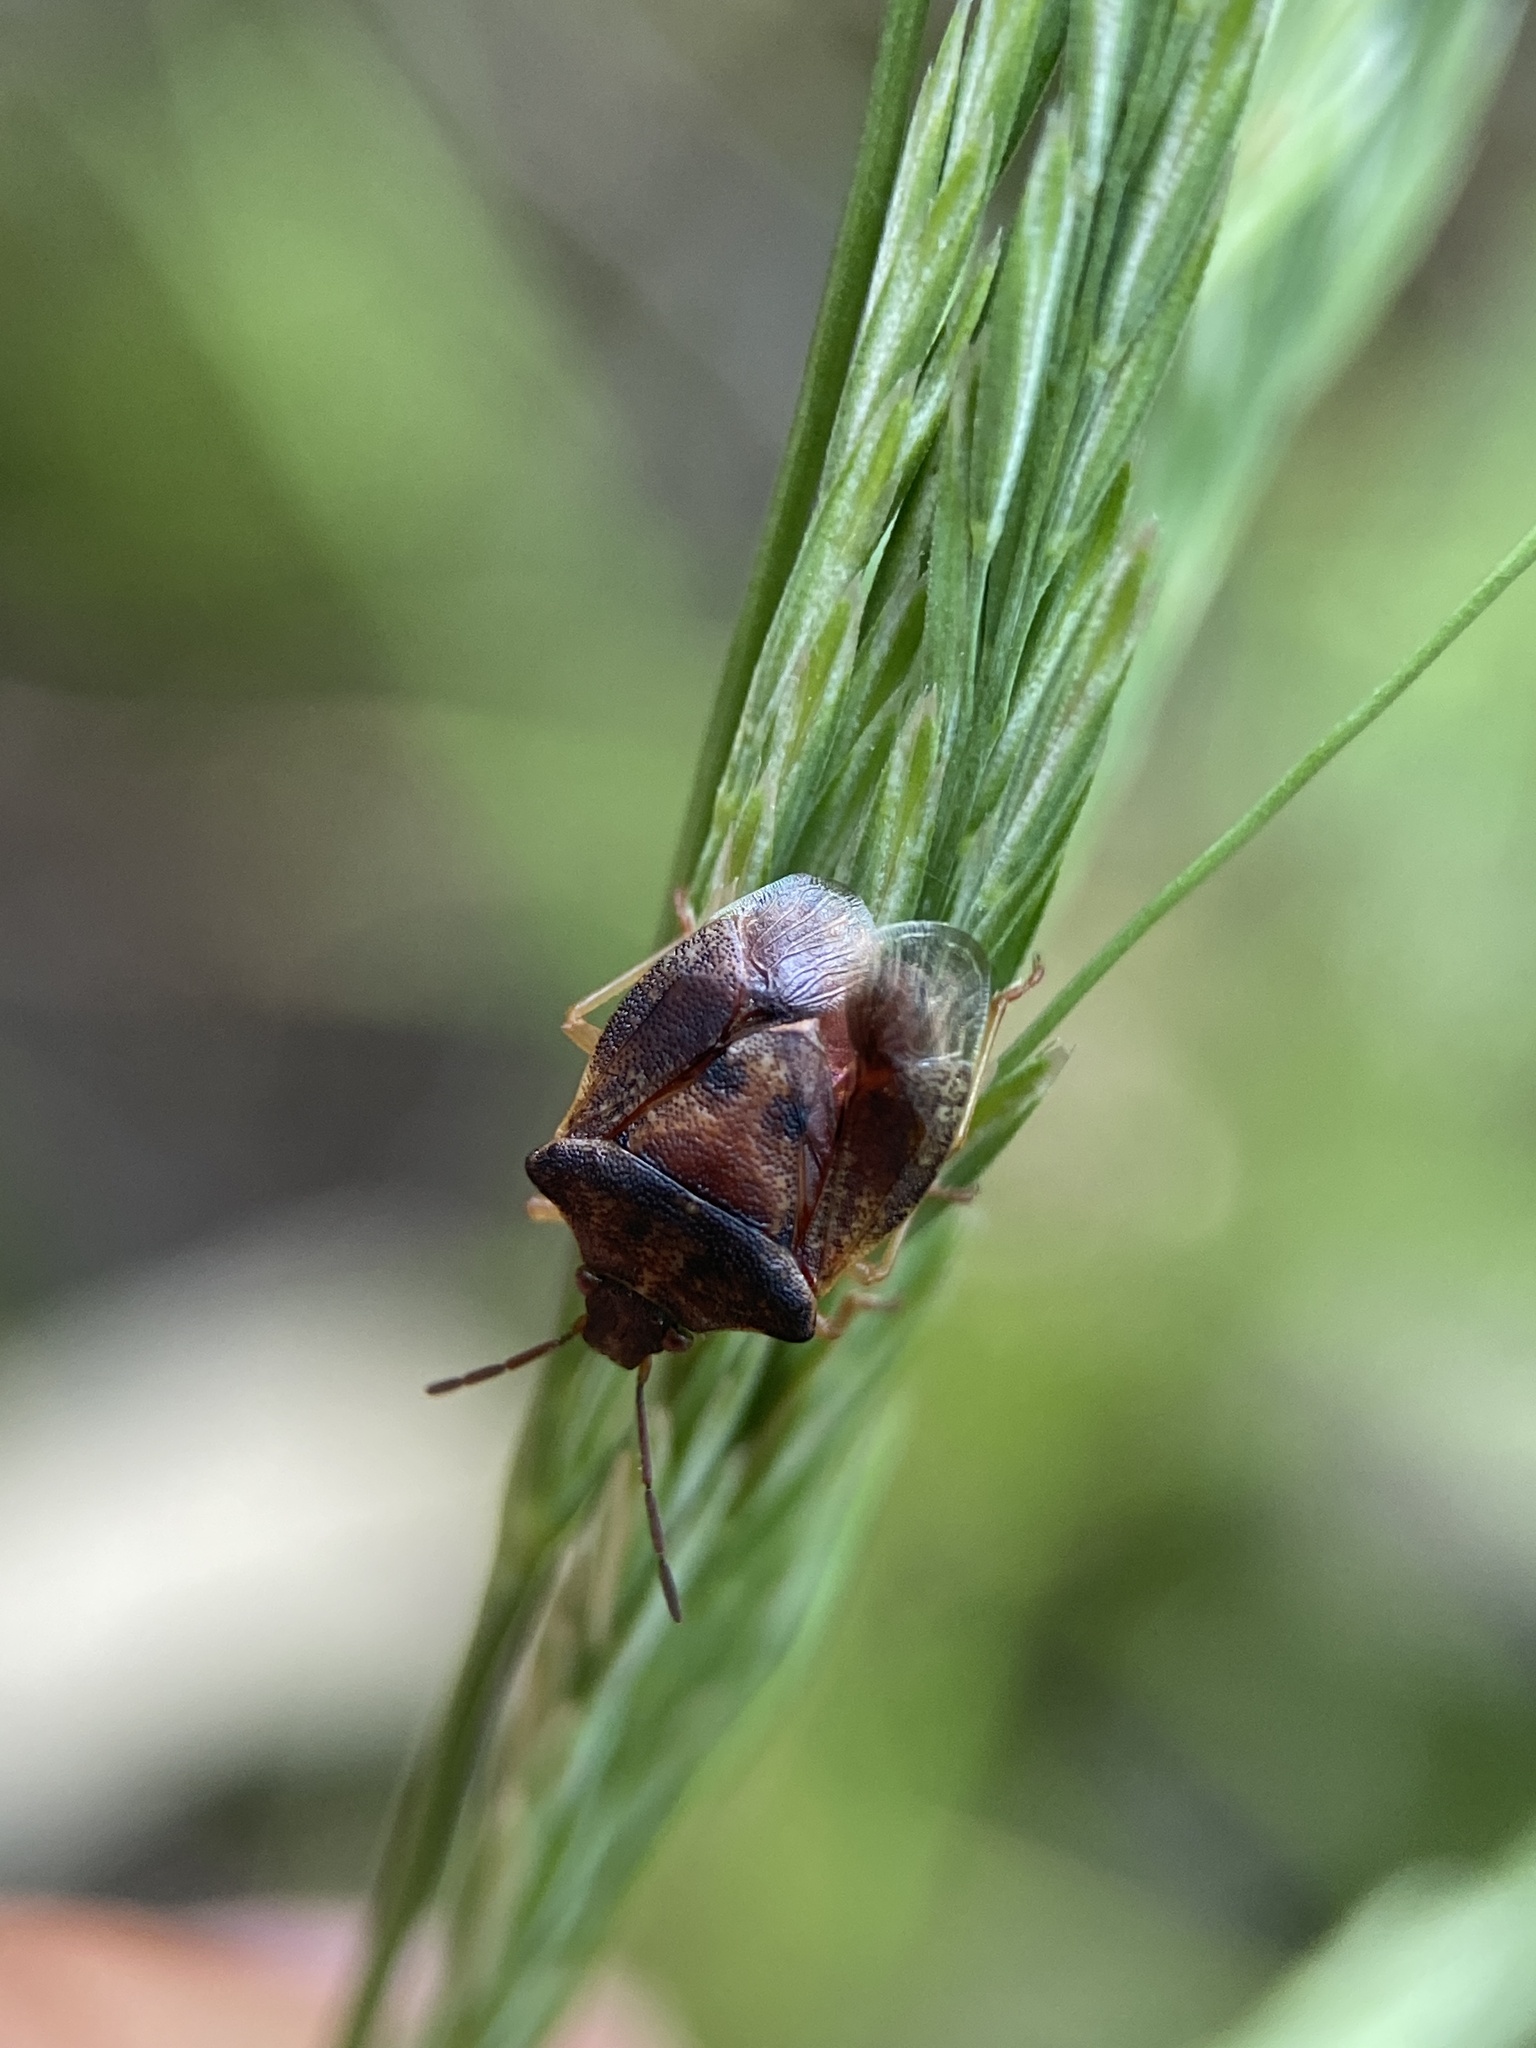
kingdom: Animalia
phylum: Arthropoda
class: Insecta
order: Hemiptera
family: Pentatomidae
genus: Dendrocoris
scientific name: Dendrocoris humeralis
